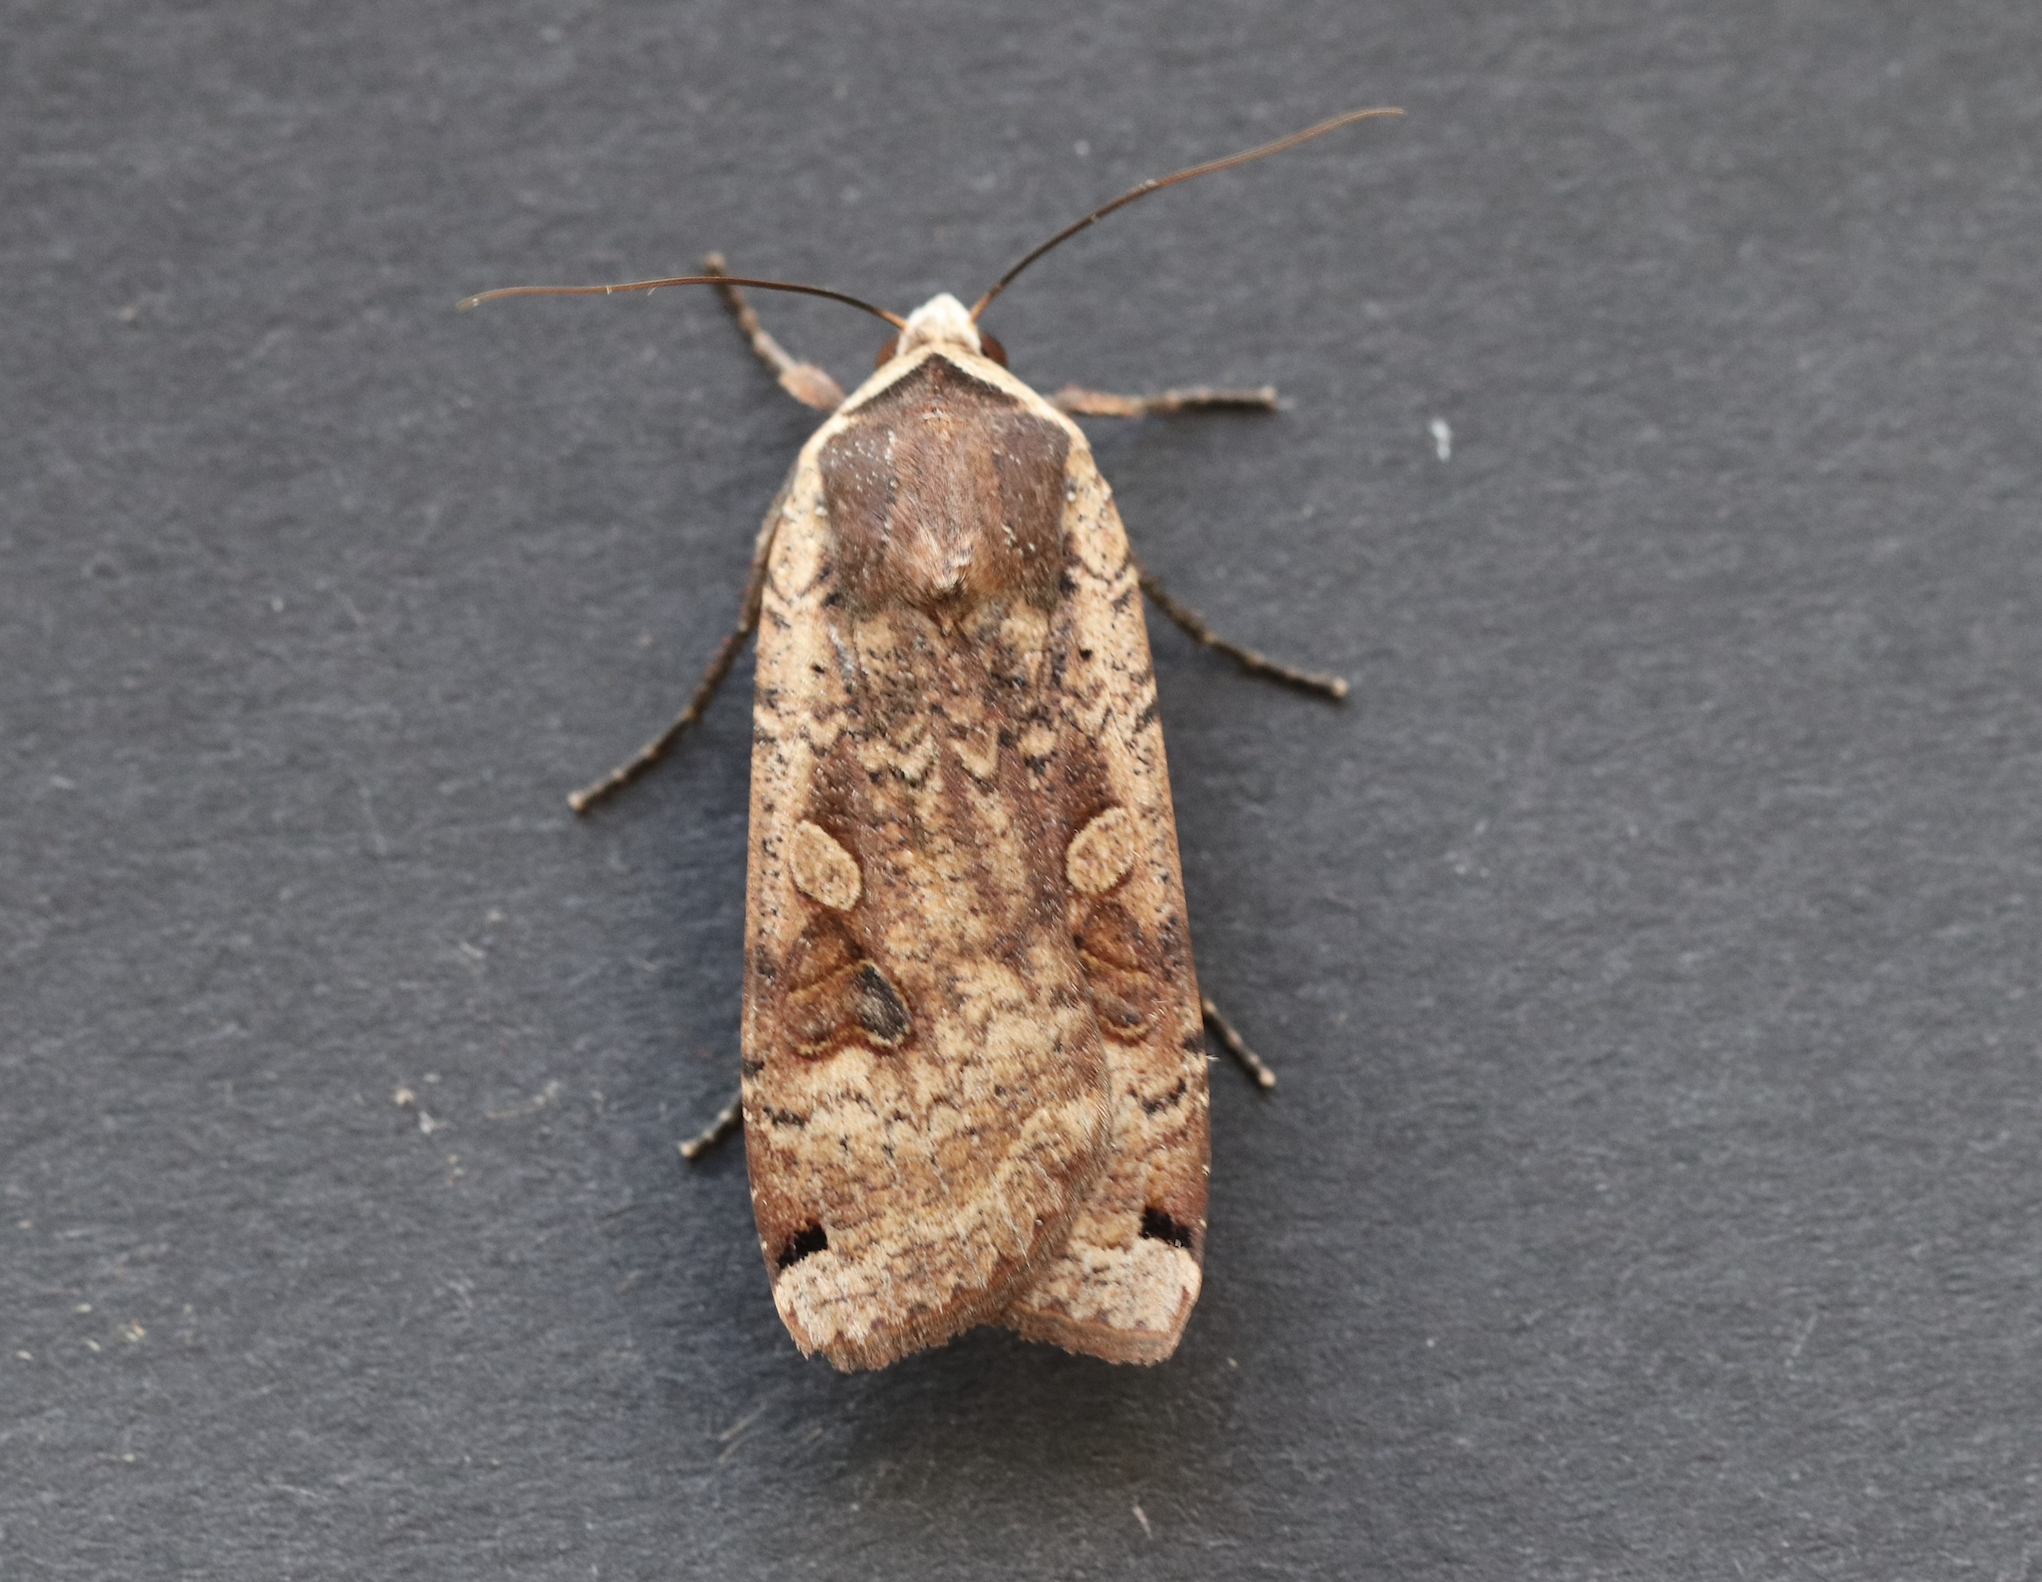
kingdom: Animalia
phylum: Arthropoda
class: Insecta
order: Lepidoptera
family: Noctuidae
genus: Noctua
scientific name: Noctua pronuba
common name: Large yellow underwing
